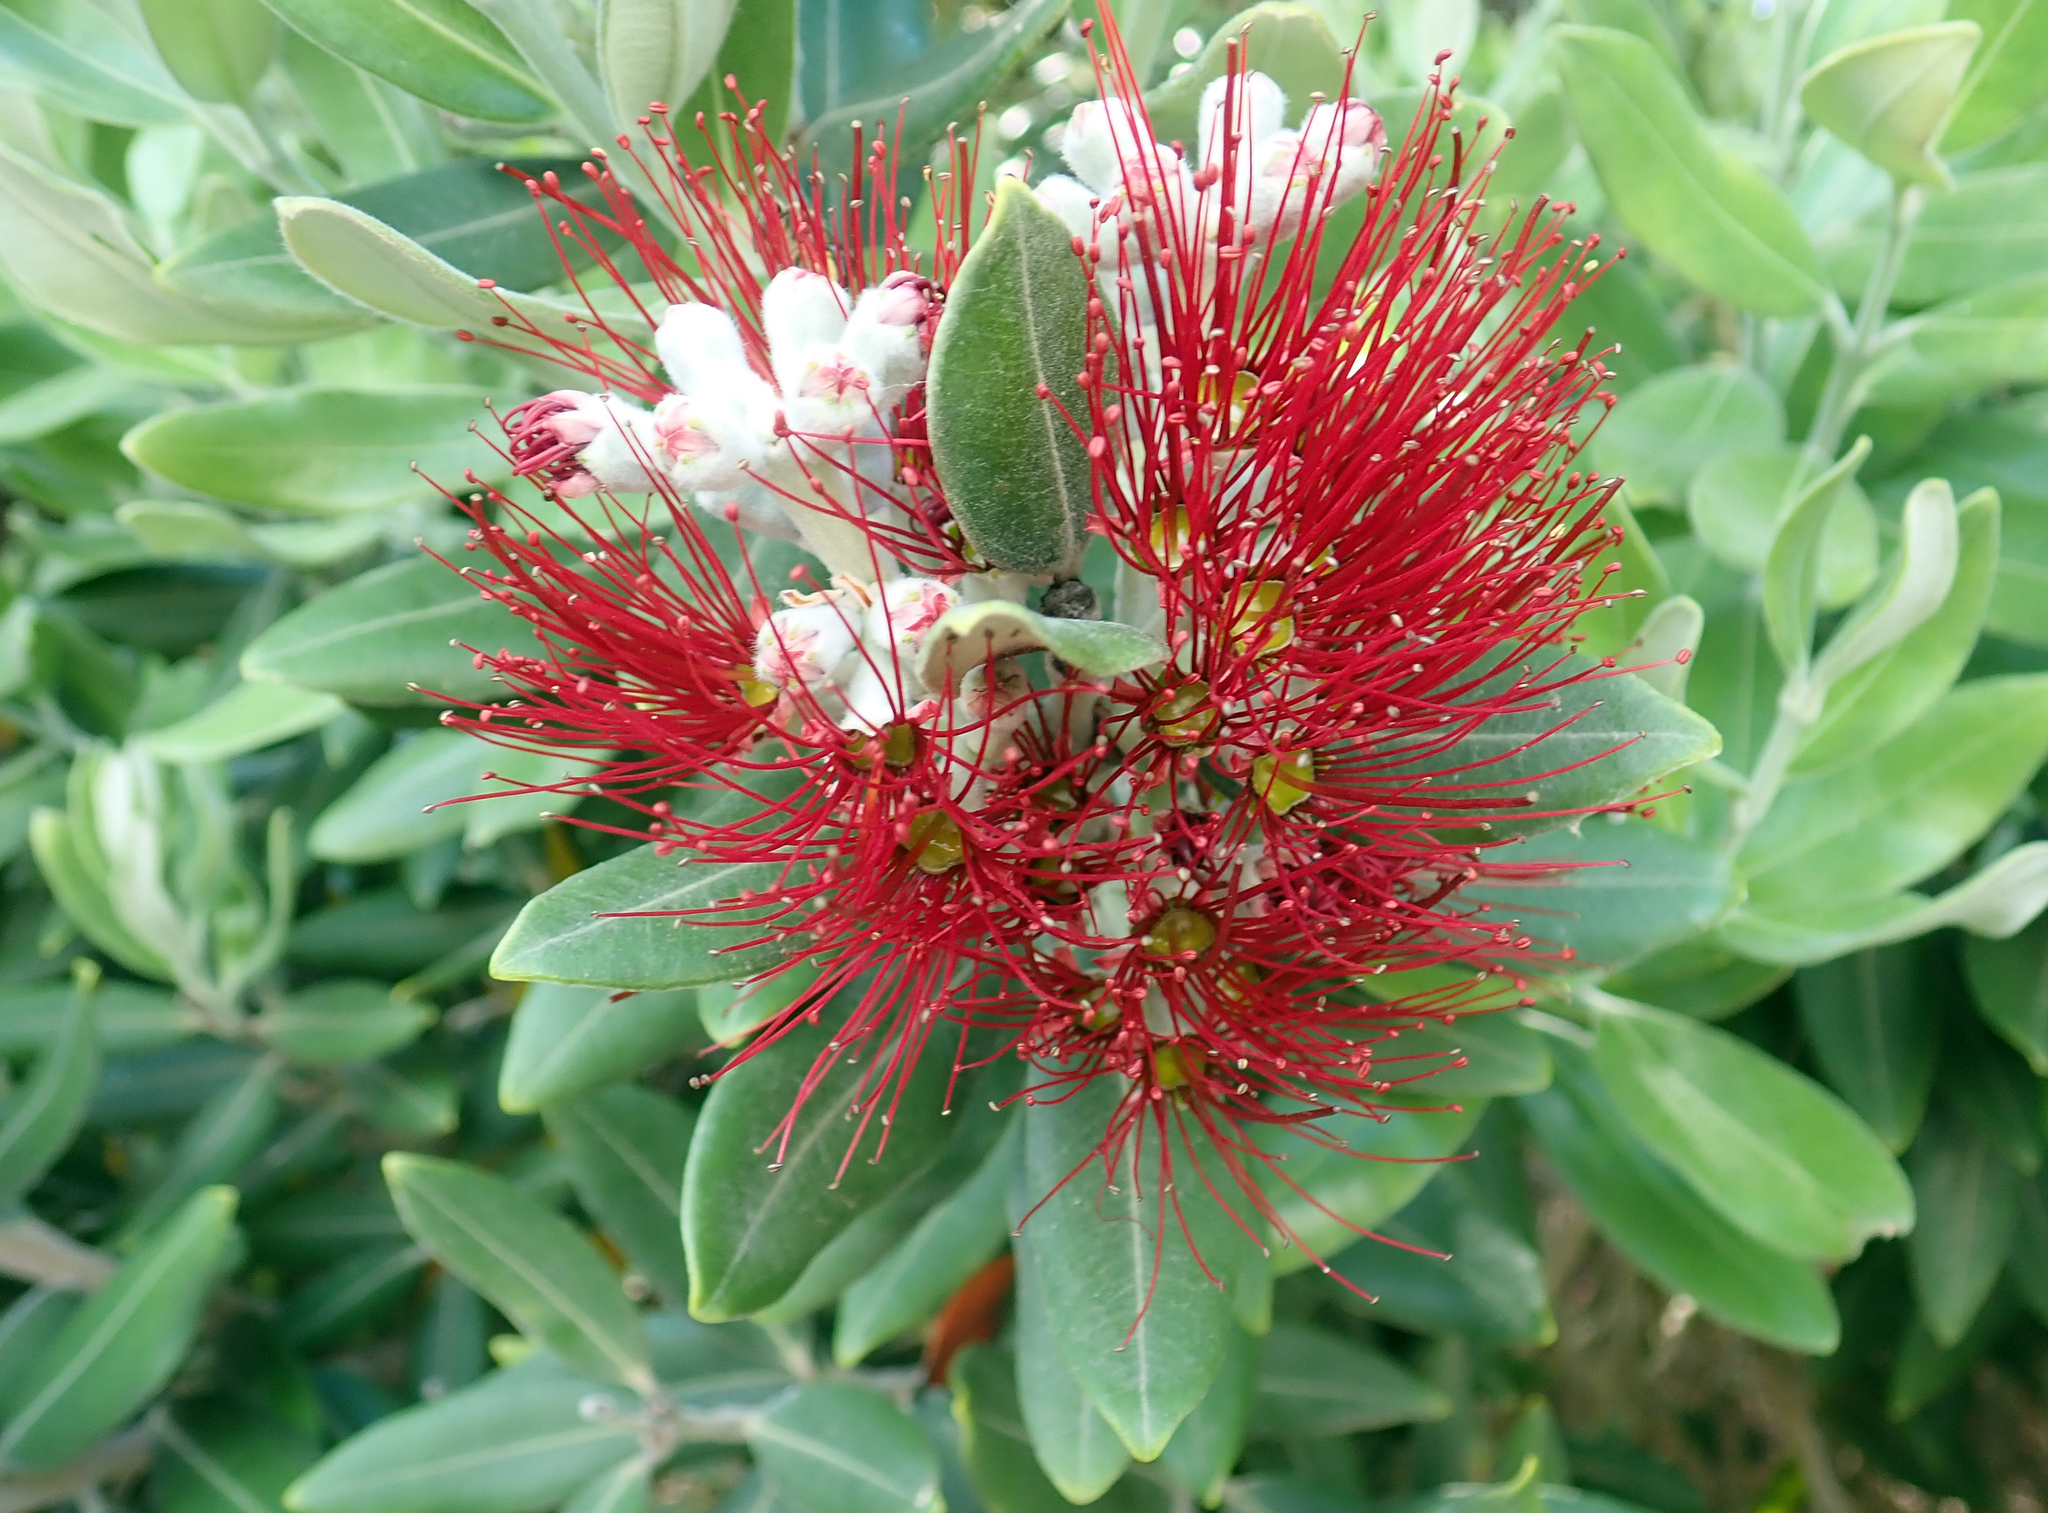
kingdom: Plantae
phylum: Tracheophyta
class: Magnoliopsida
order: Myrtales
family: Myrtaceae
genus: Metrosideros
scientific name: Metrosideros excelsa
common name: New zealand christmastree
